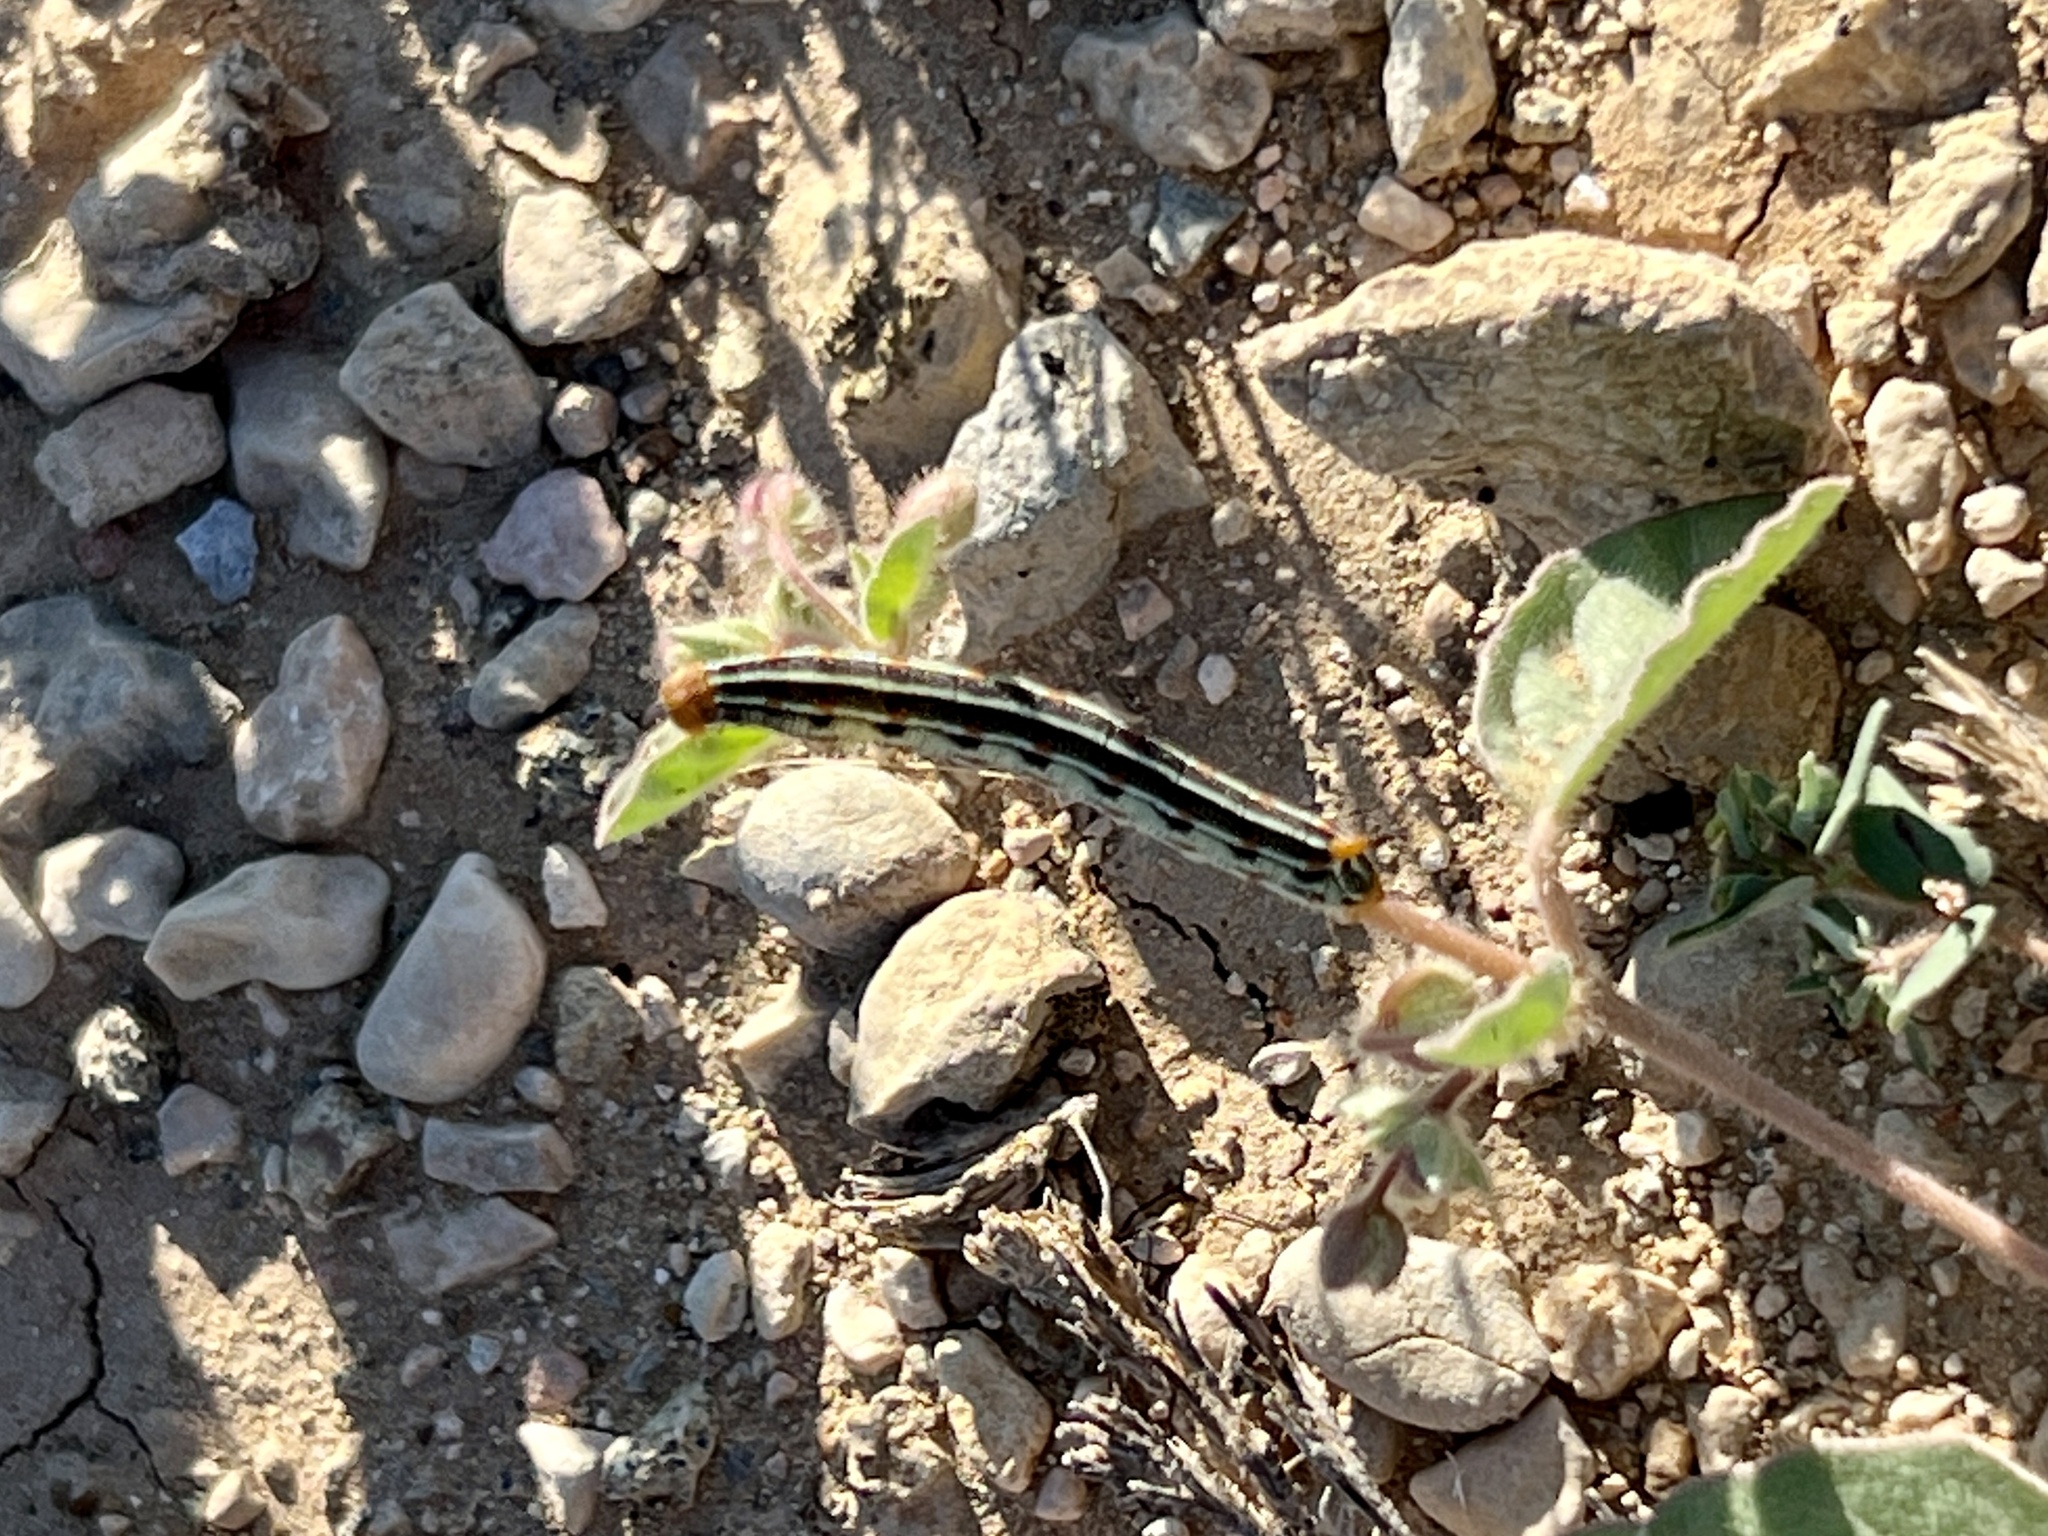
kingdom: Animalia
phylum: Arthropoda
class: Insecta
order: Lepidoptera
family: Sphingidae
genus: Hyles
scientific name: Hyles lineata
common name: White-lined sphinx
